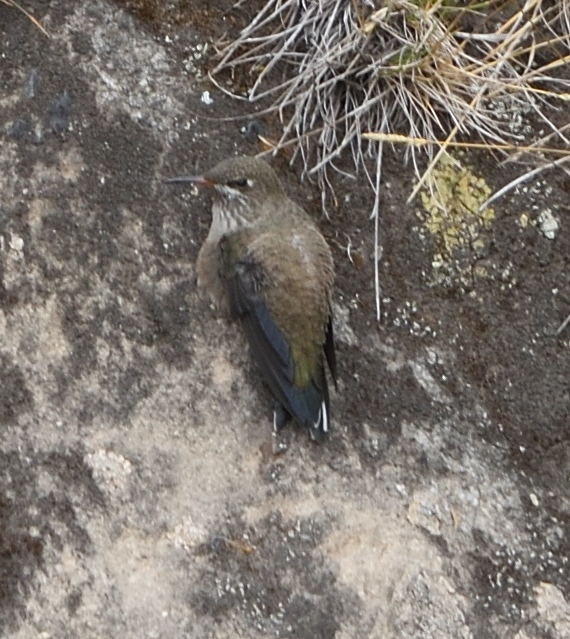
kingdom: Animalia
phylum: Chordata
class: Aves
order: Apodiformes
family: Trochilidae
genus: Oreotrochilus
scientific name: Oreotrochilus chimborazo
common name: Ecuadorian hillstar
